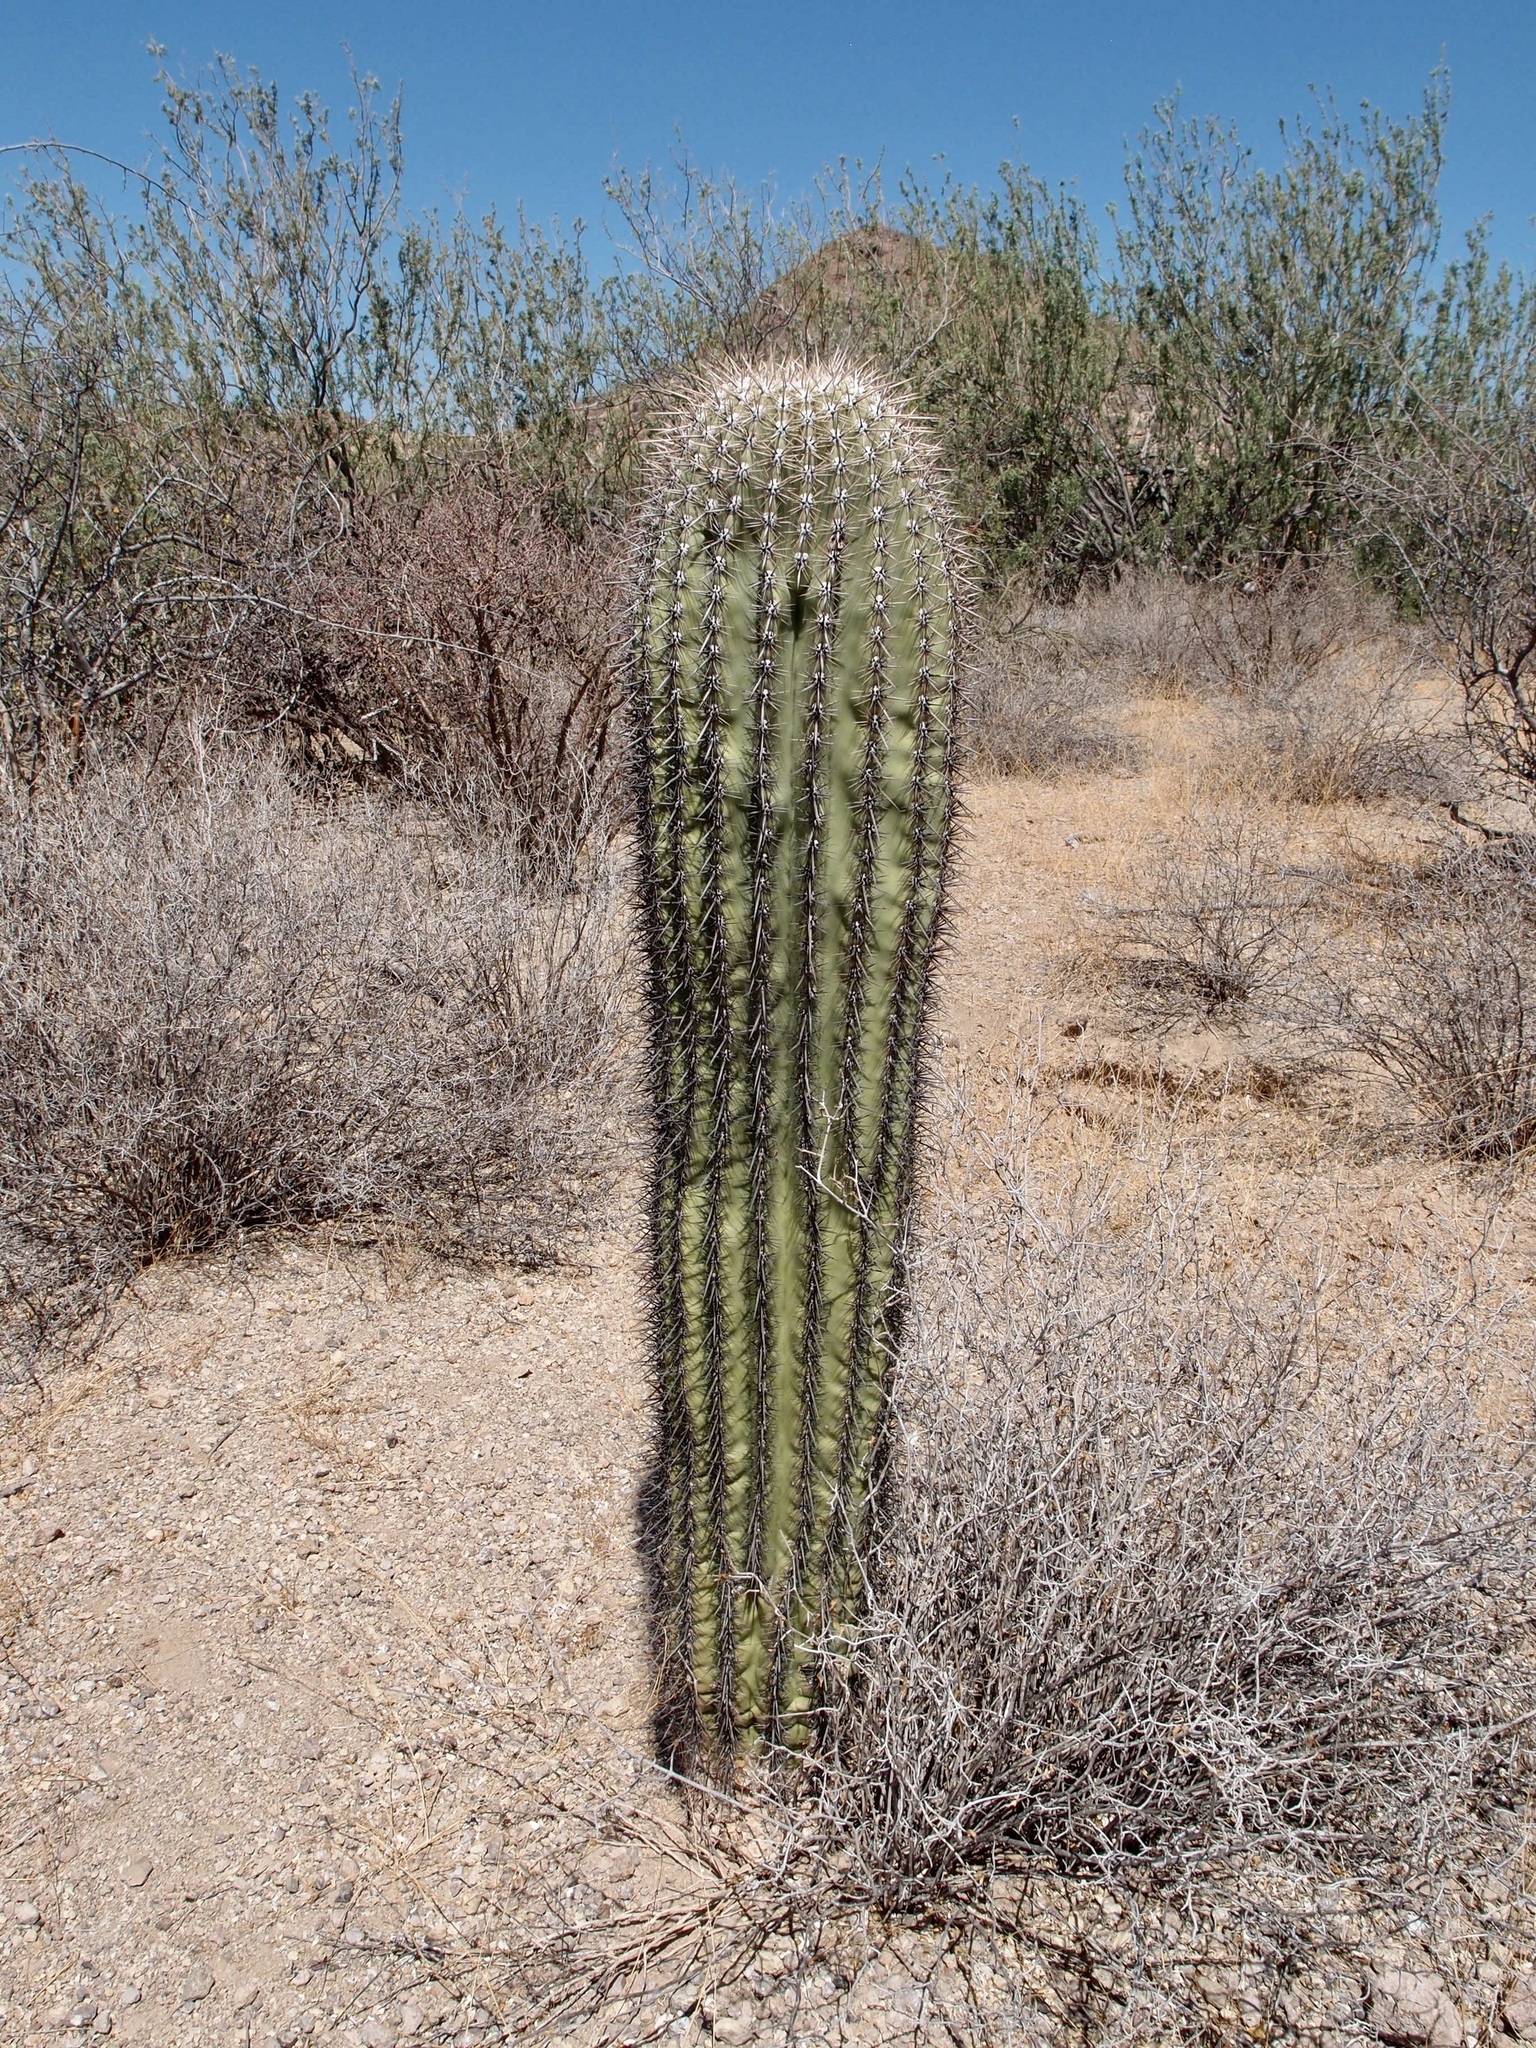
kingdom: Plantae
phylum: Tracheophyta
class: Magnoliopsida
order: Caryophyllales
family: Cactaceae
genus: Carnegiea
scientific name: Carnegiea gigantea
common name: Saguaro
